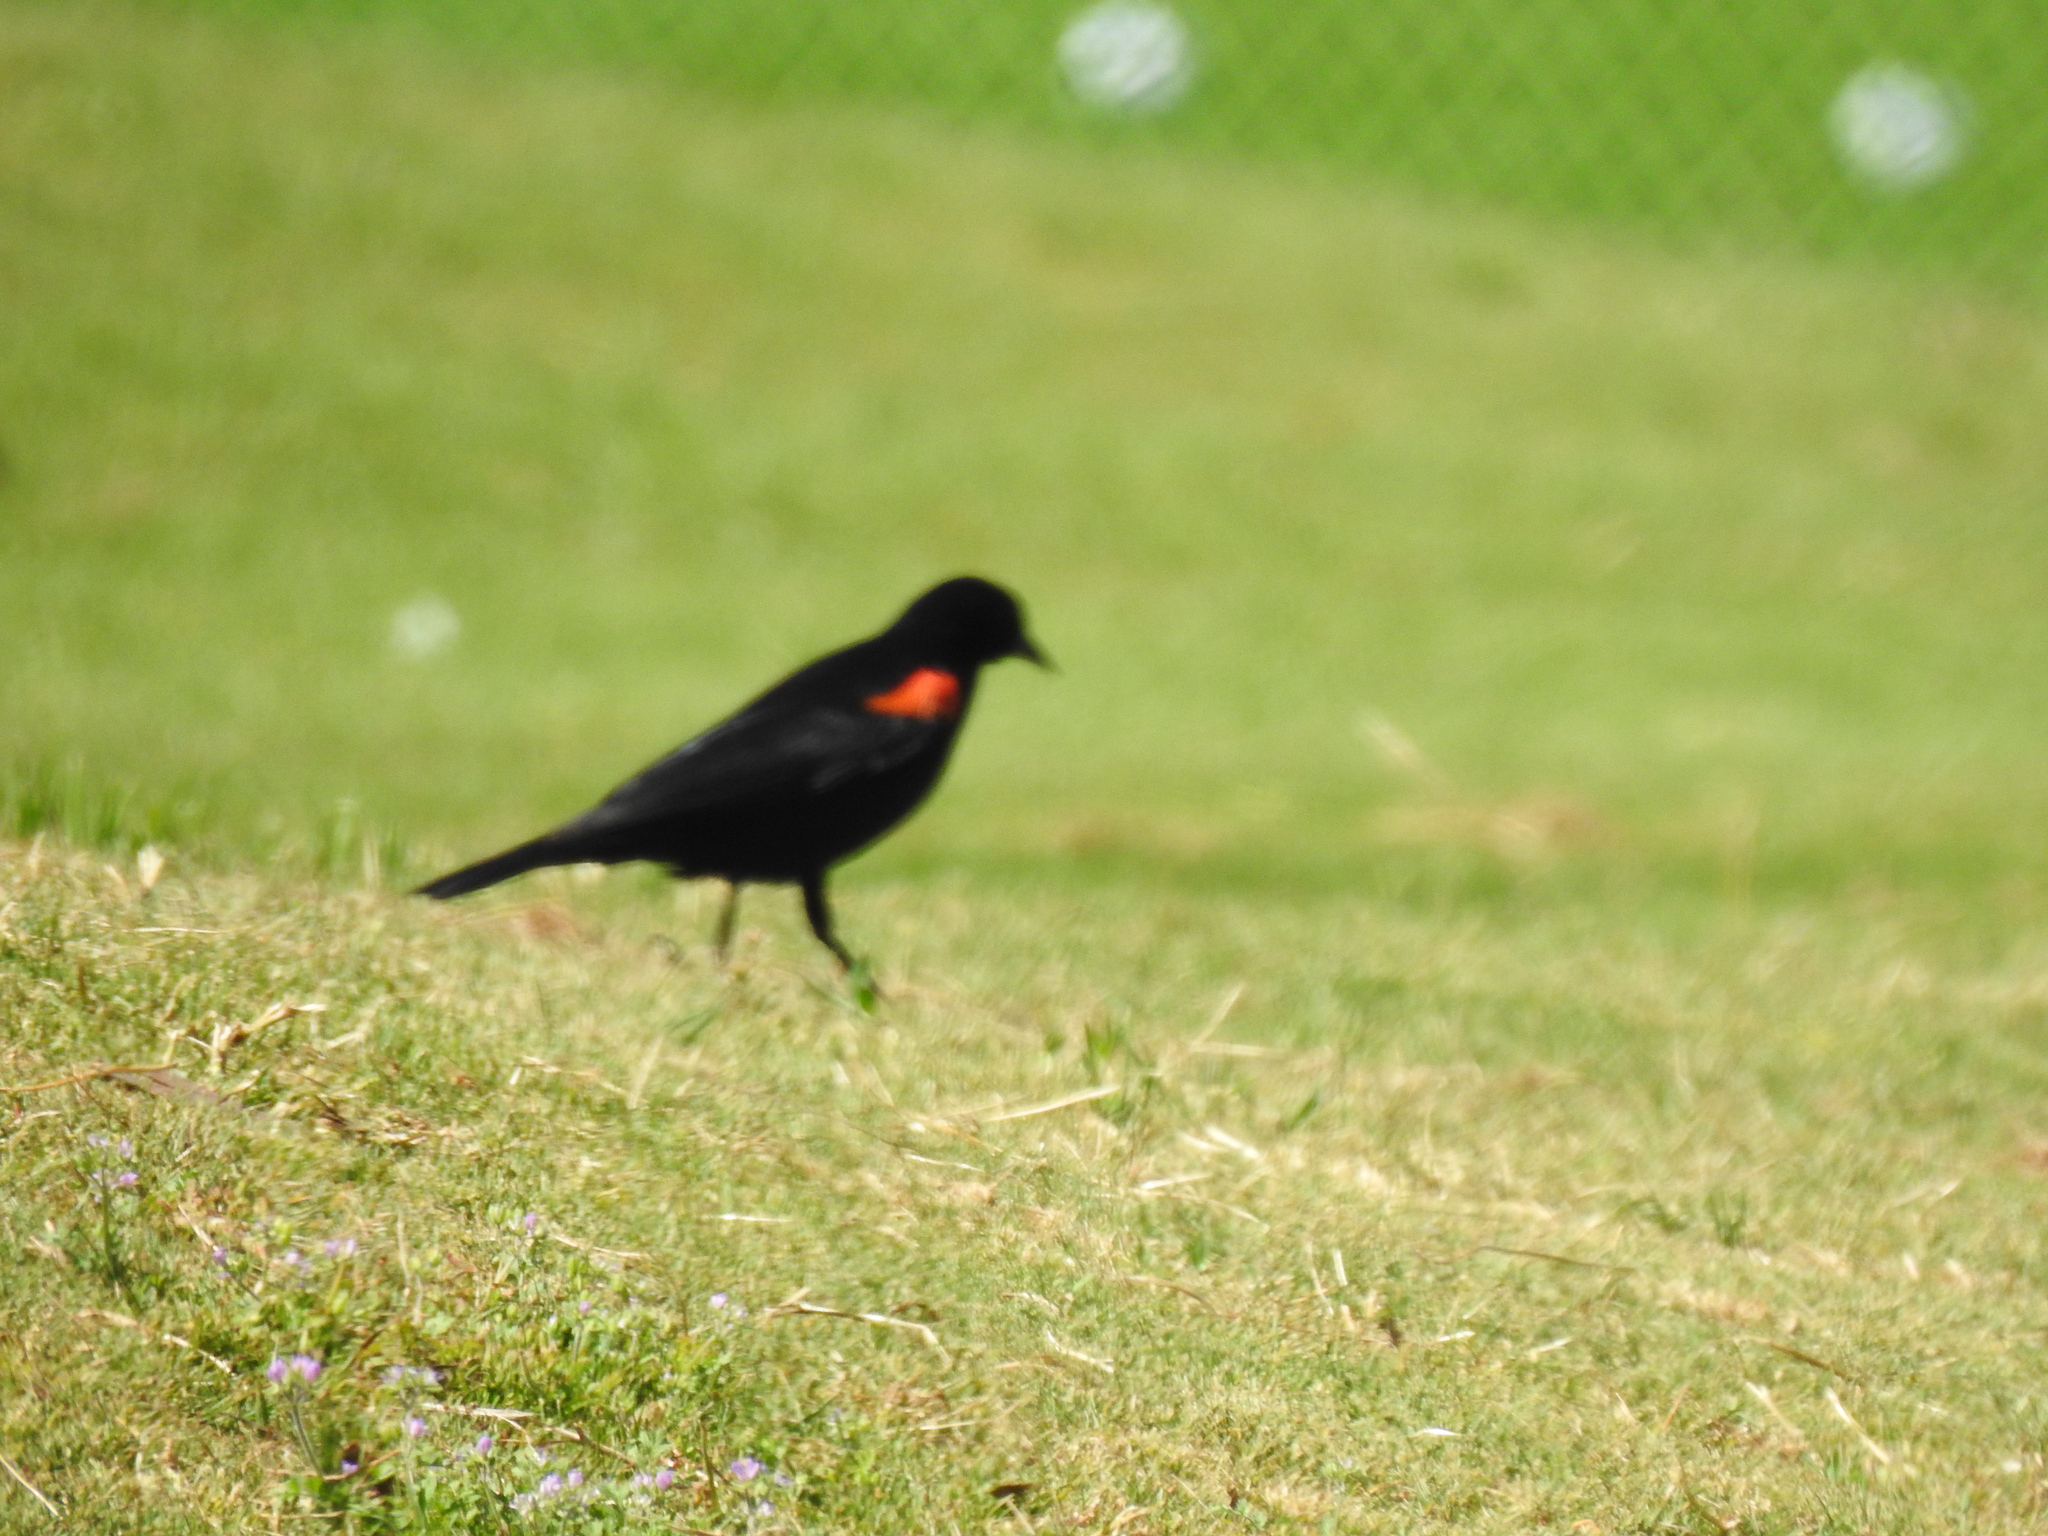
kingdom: Animalia
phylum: Chordata
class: Aves
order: Passeriformes
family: Icteridae
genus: Agelaius
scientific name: Agelaius phoeniceus
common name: Red-winged blackbird
